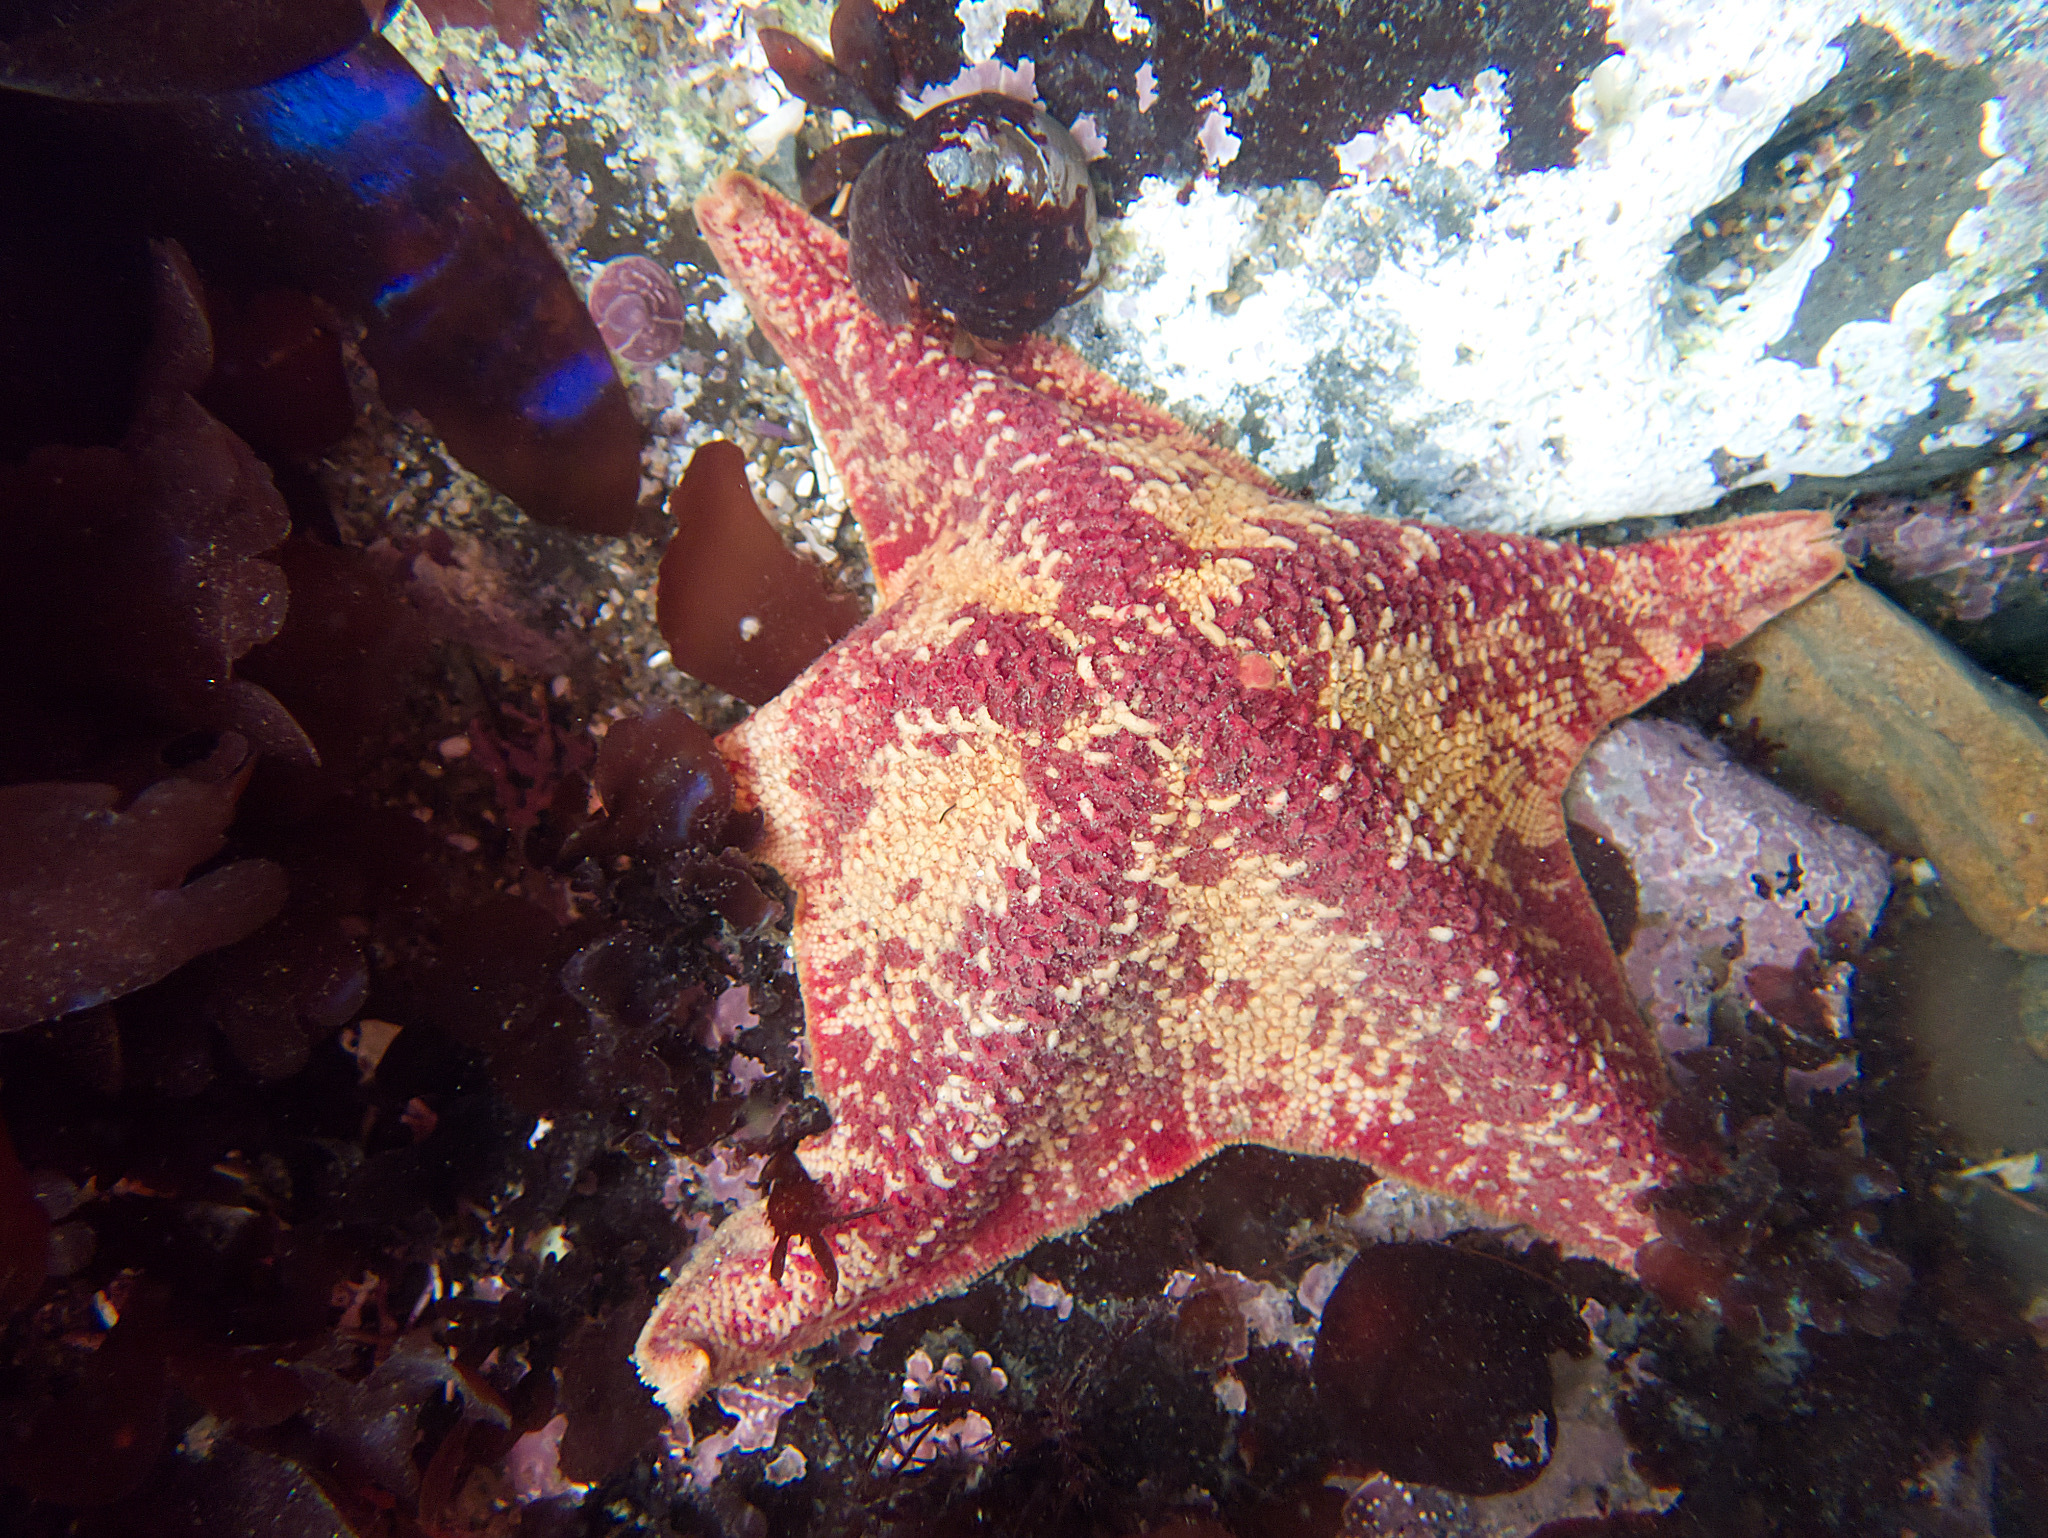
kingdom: Animalia
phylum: Echinodermata
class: Asteroidea
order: Valvatida
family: Asterinidae
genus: Patiria
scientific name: Patiria miniata
